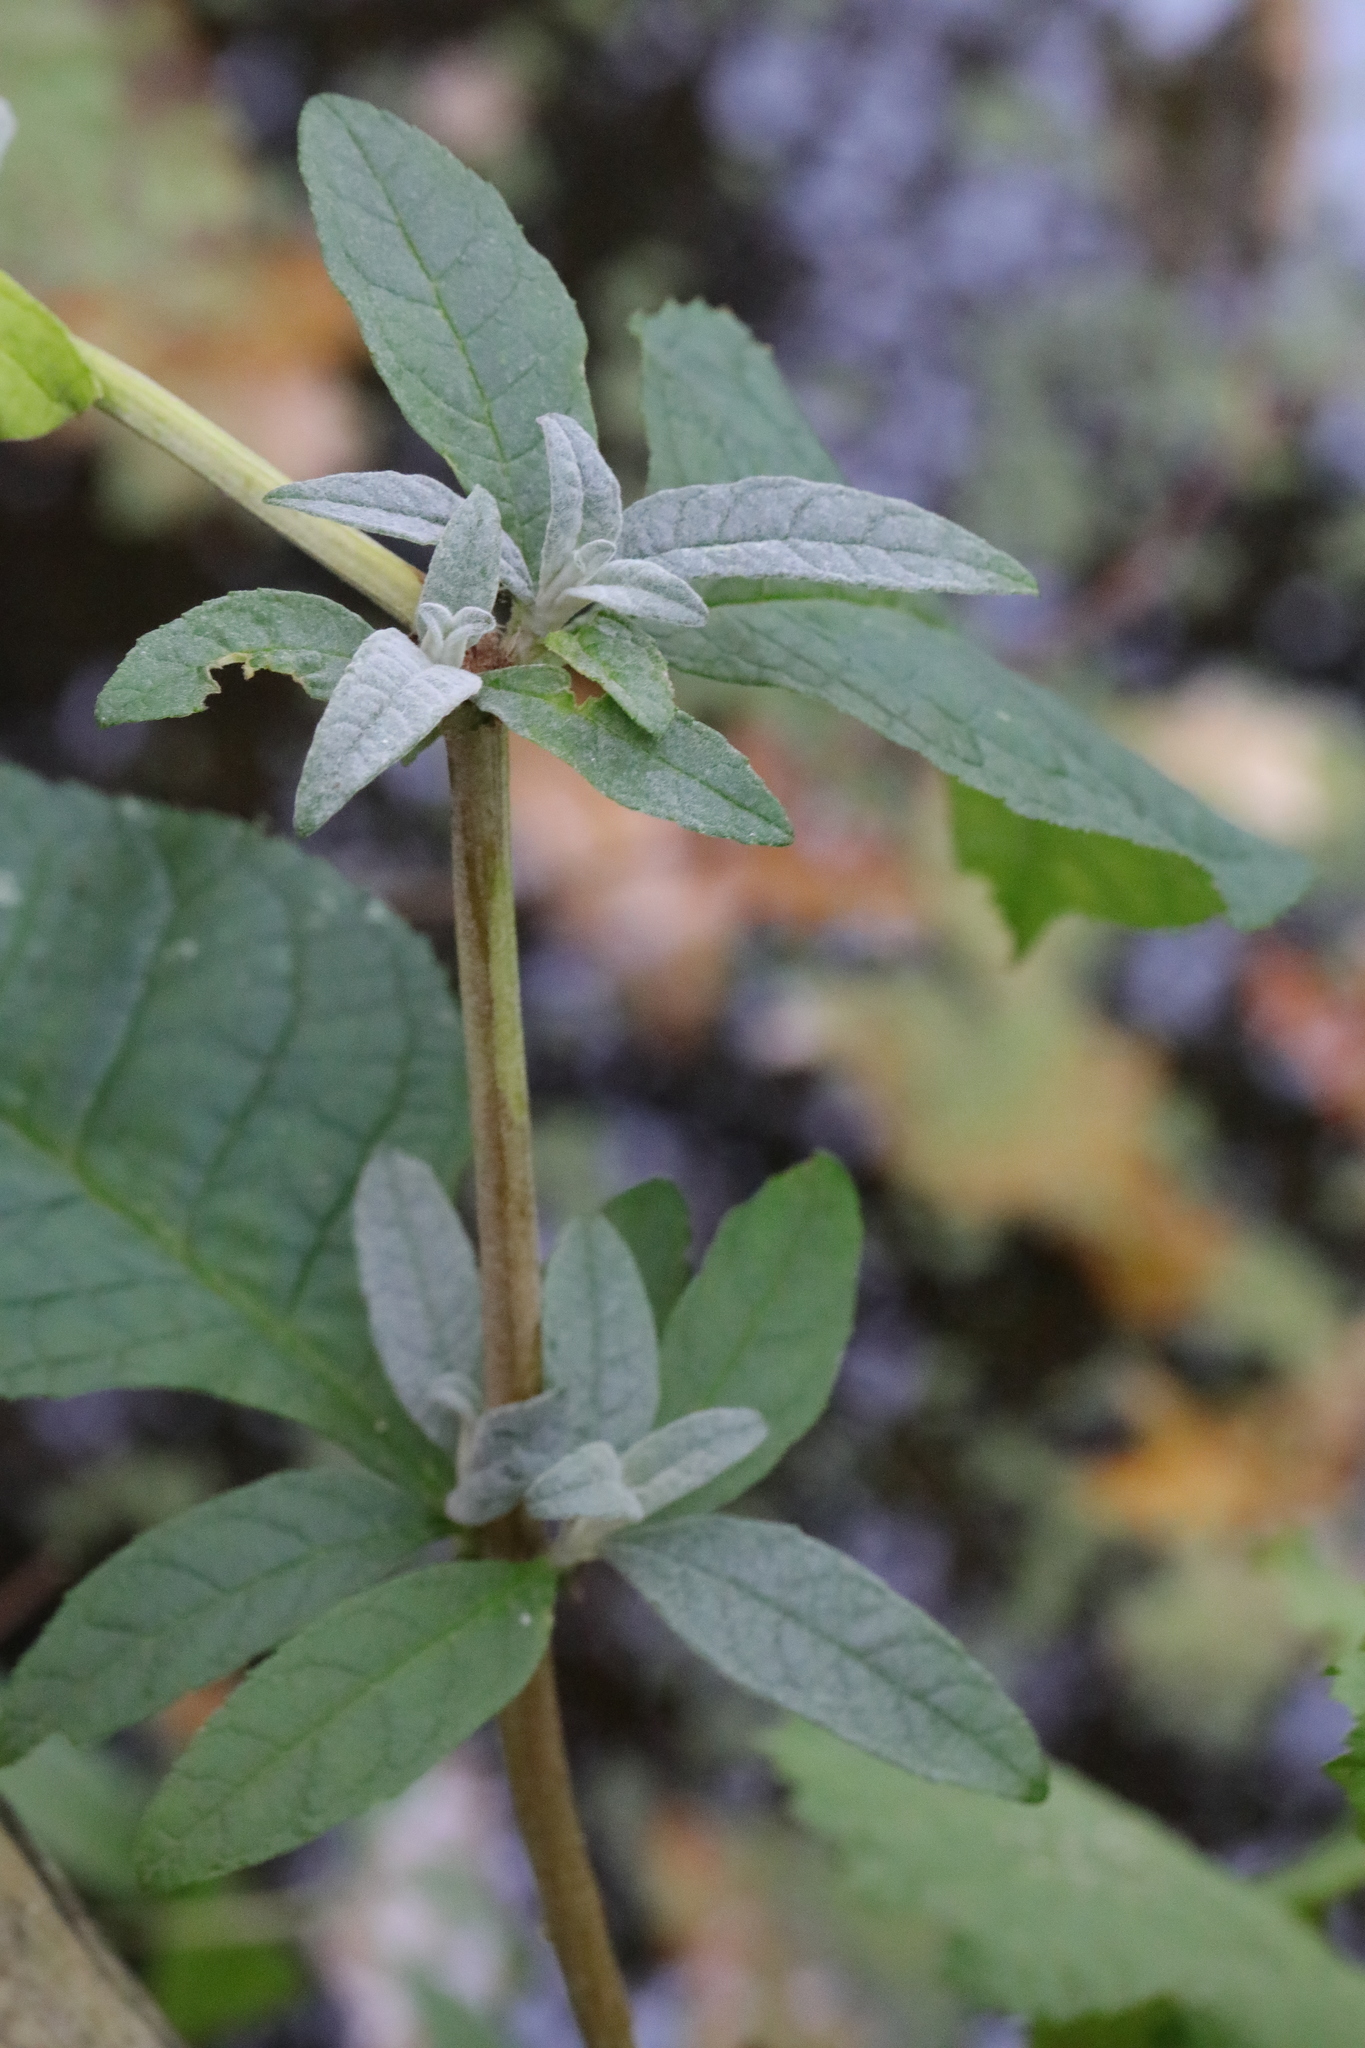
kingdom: Plantae
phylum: Tracheophyta
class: Magnoliopsida
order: Lamiales
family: Scrophulariaceae
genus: Buddleja
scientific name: Buddleja davidii
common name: Butterfly-bush
